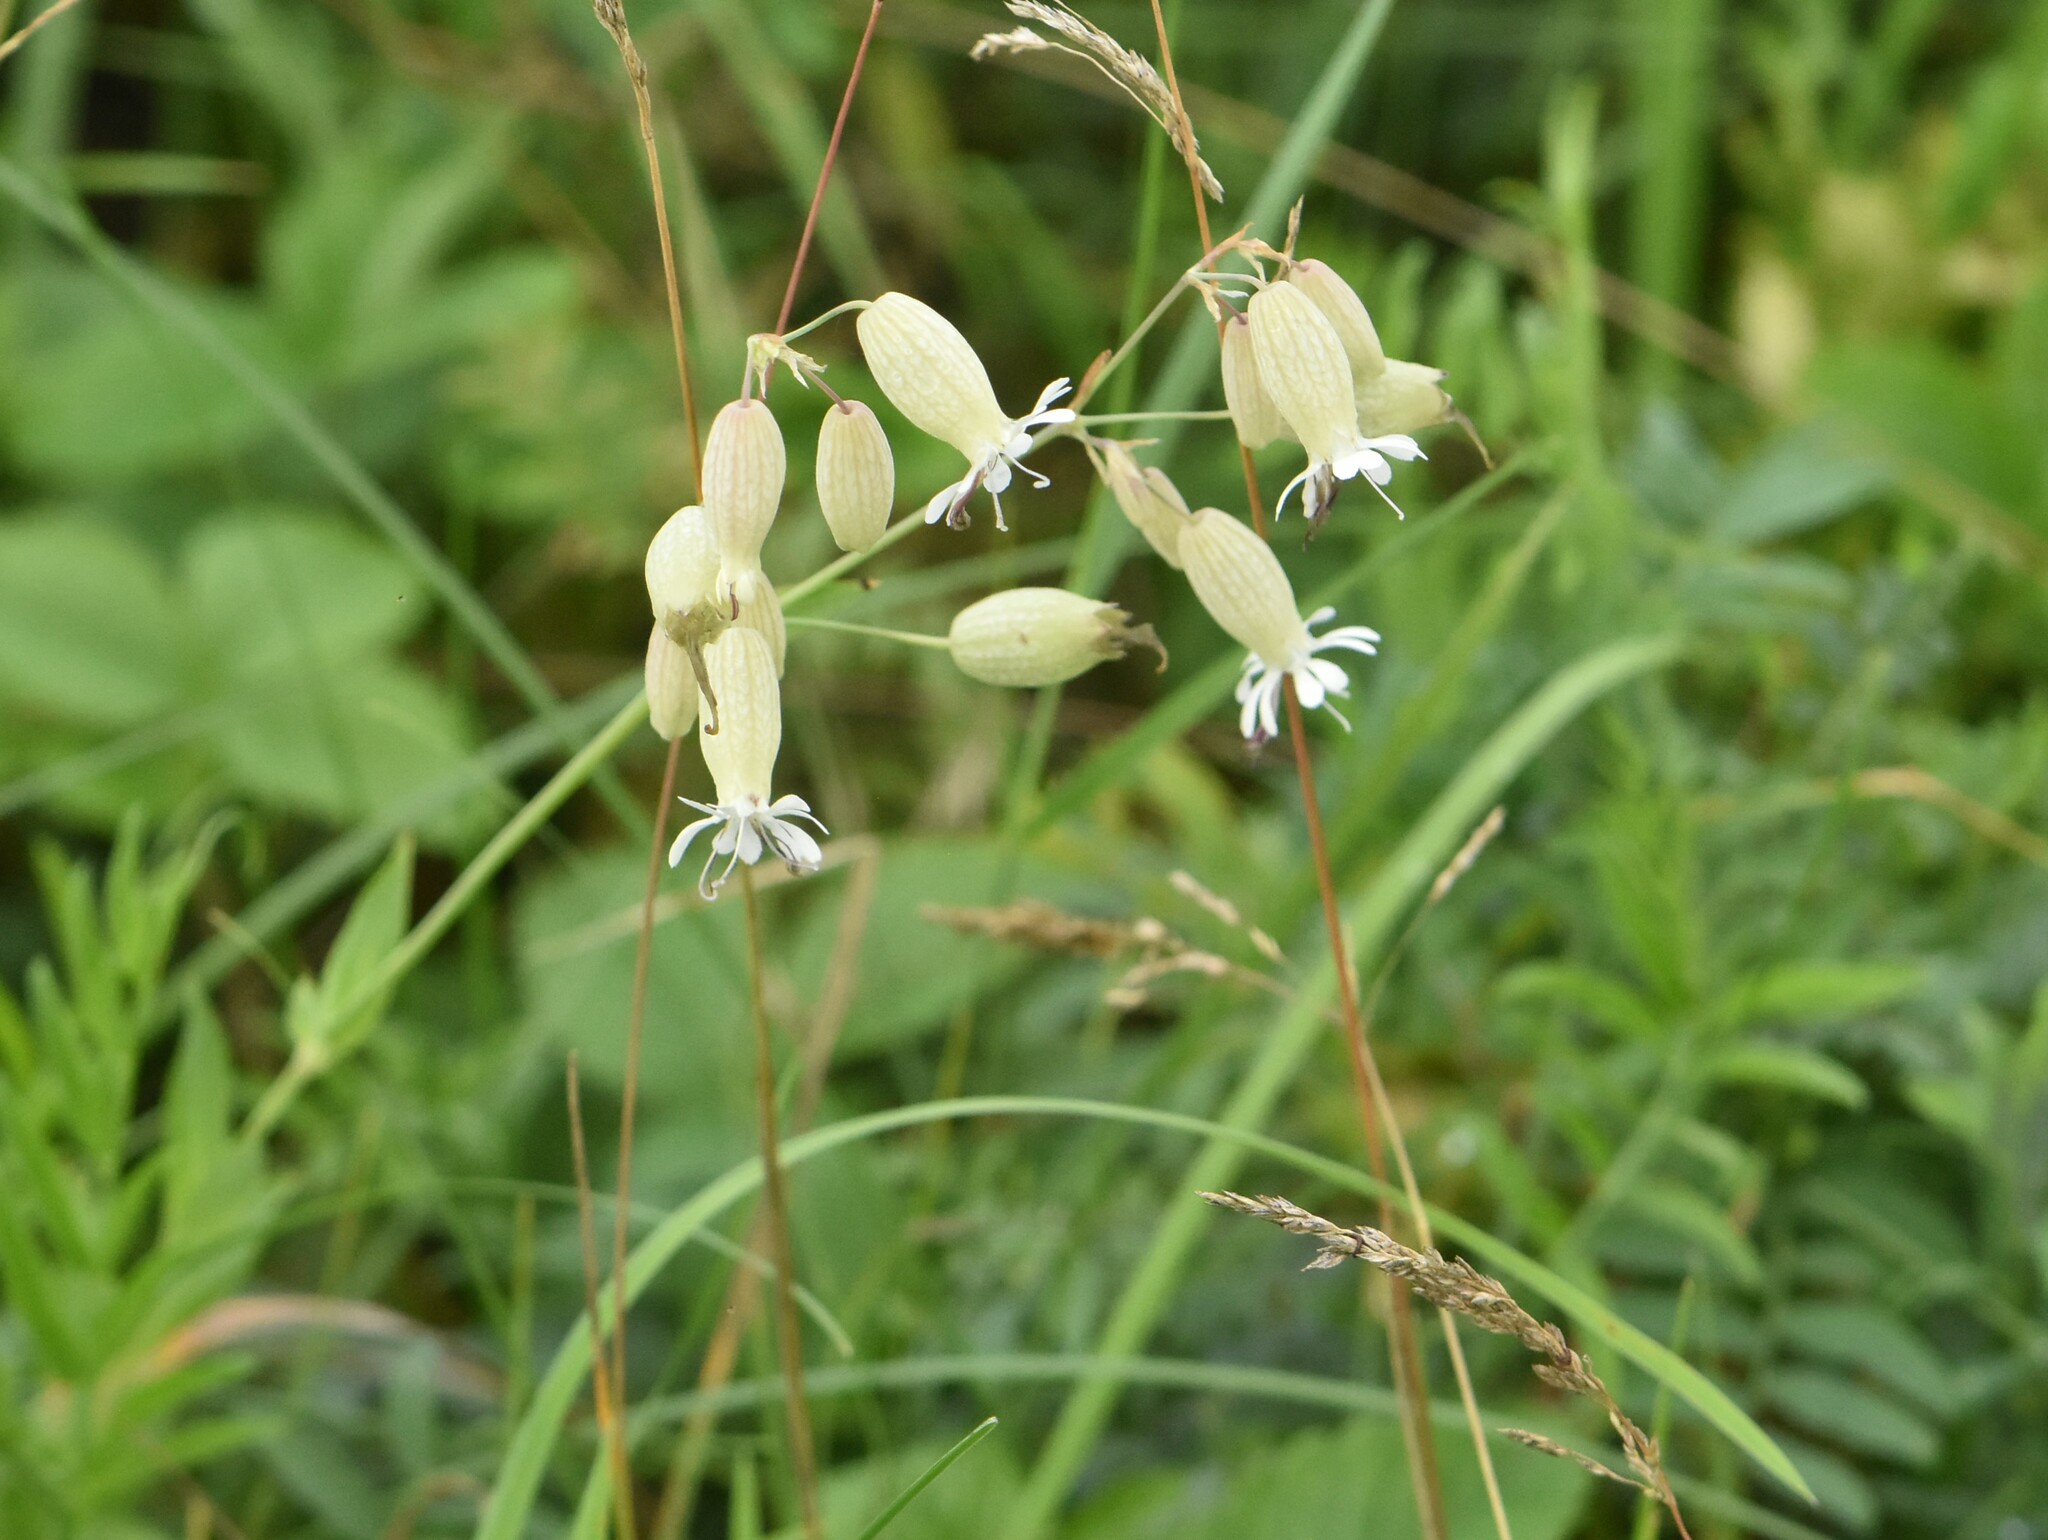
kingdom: Plantae
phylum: Tracheophyta
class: Magnoliopsida
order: Caryophyllales
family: Caryophyllaceae
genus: Silene
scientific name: Silene vulgaris
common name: Bladder campion
